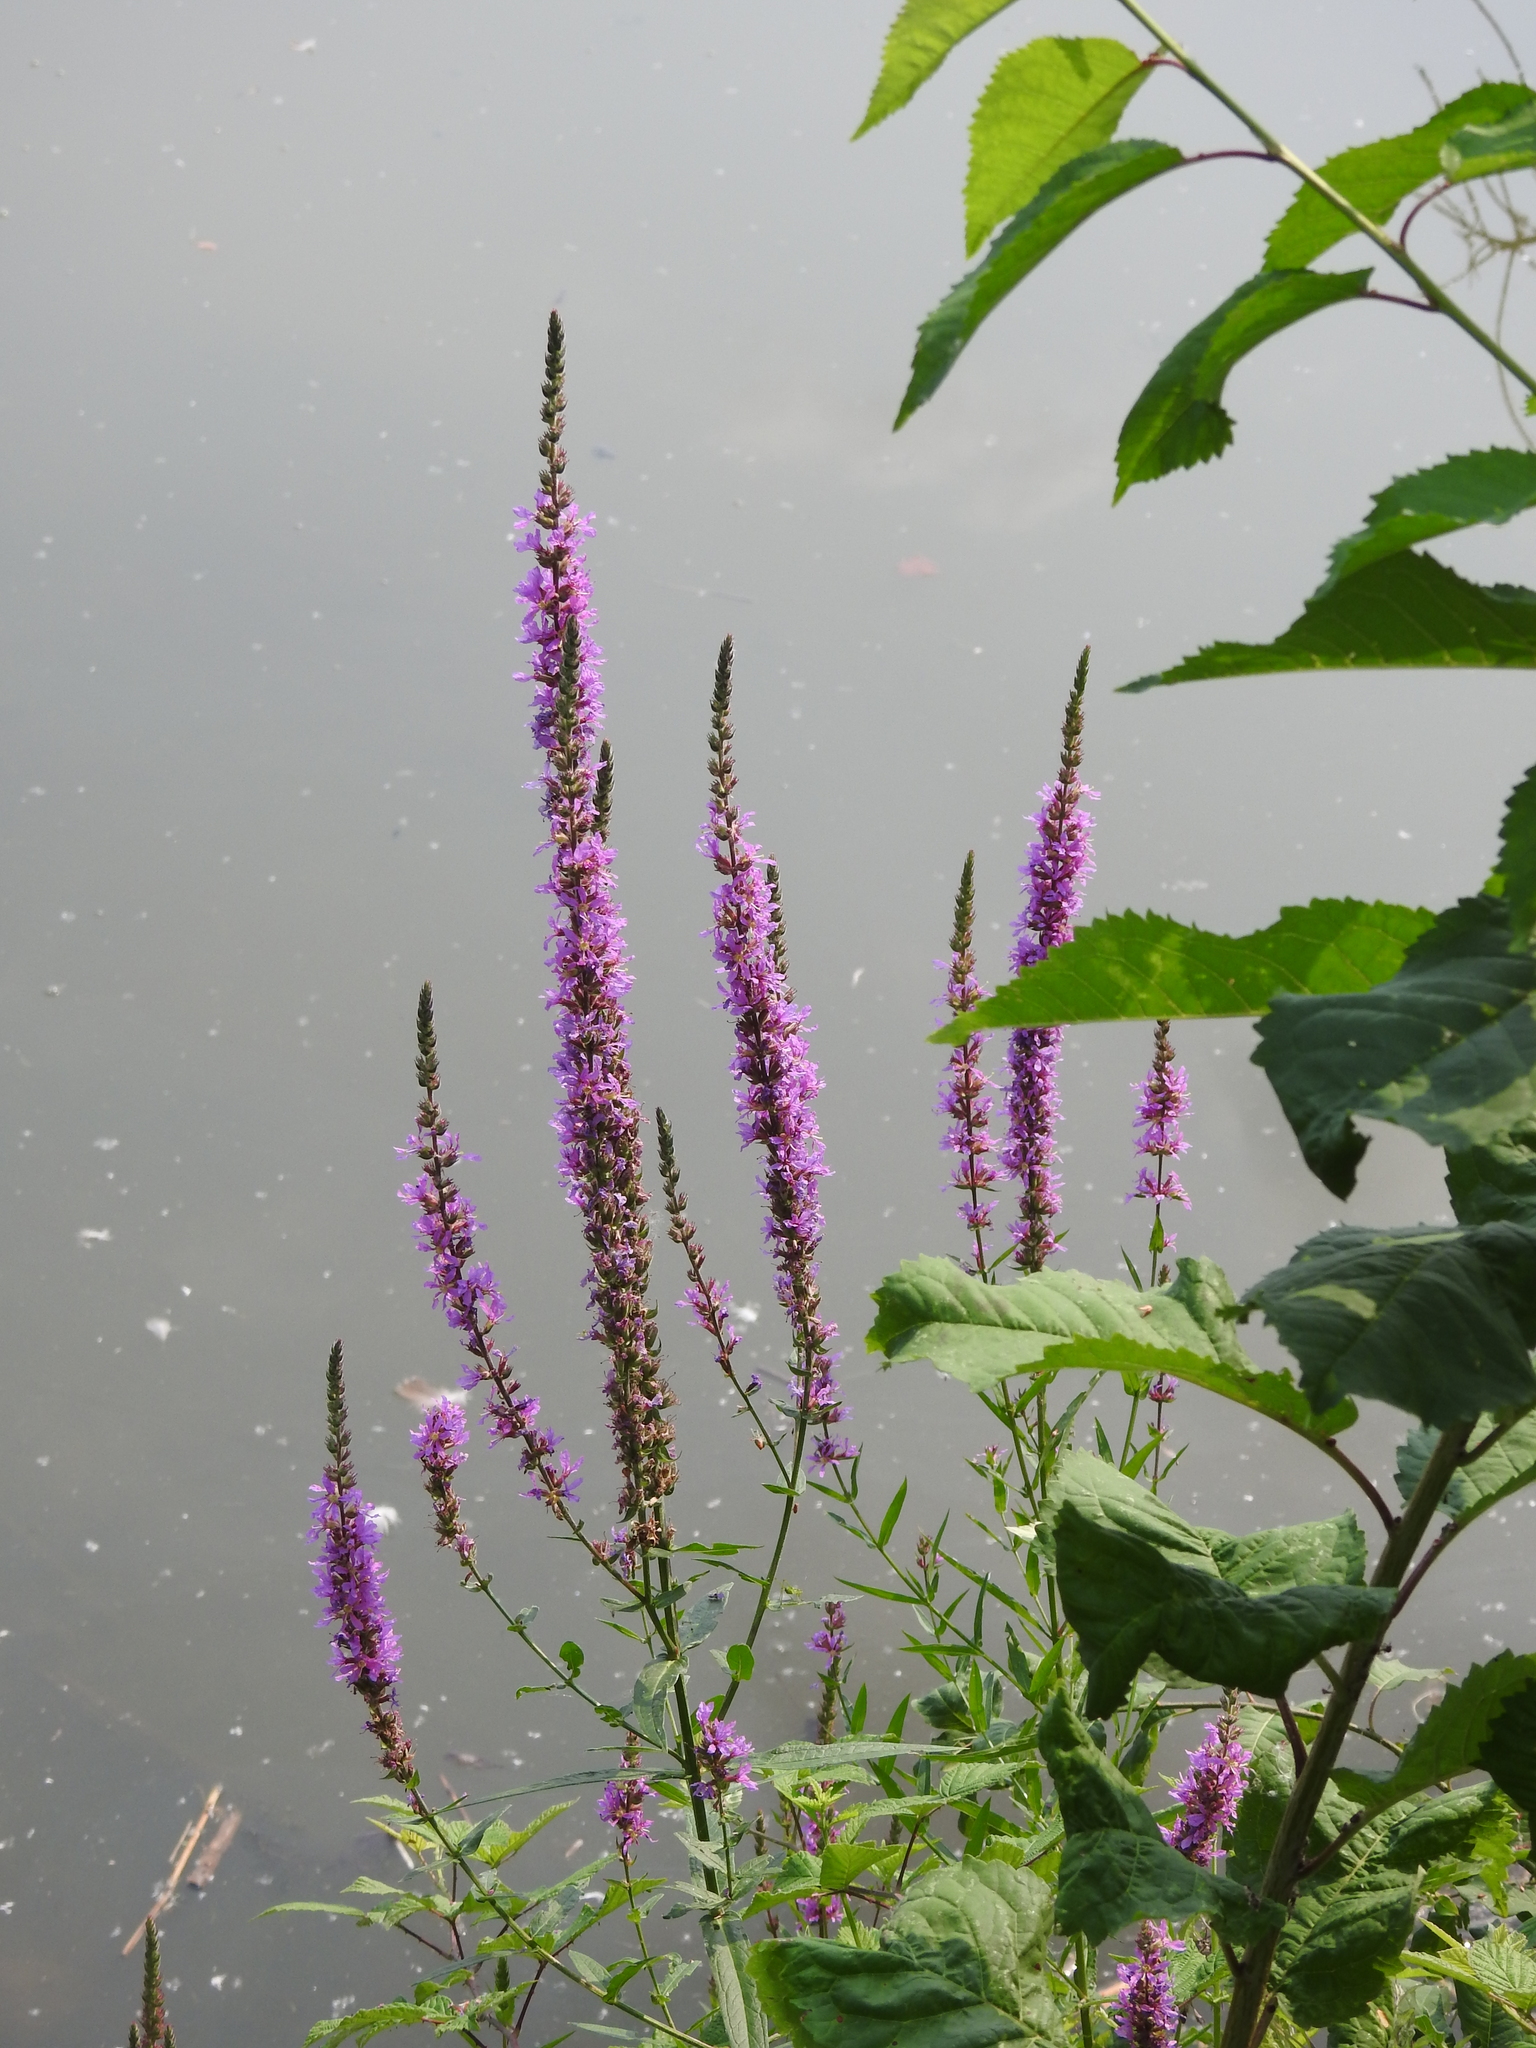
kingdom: Plantae
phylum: Tracheophyta
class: Magnoliopsida
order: Myrtales
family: Lythraceae
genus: Lythrum
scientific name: Lythrum salicaria
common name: Purple loosestrife
